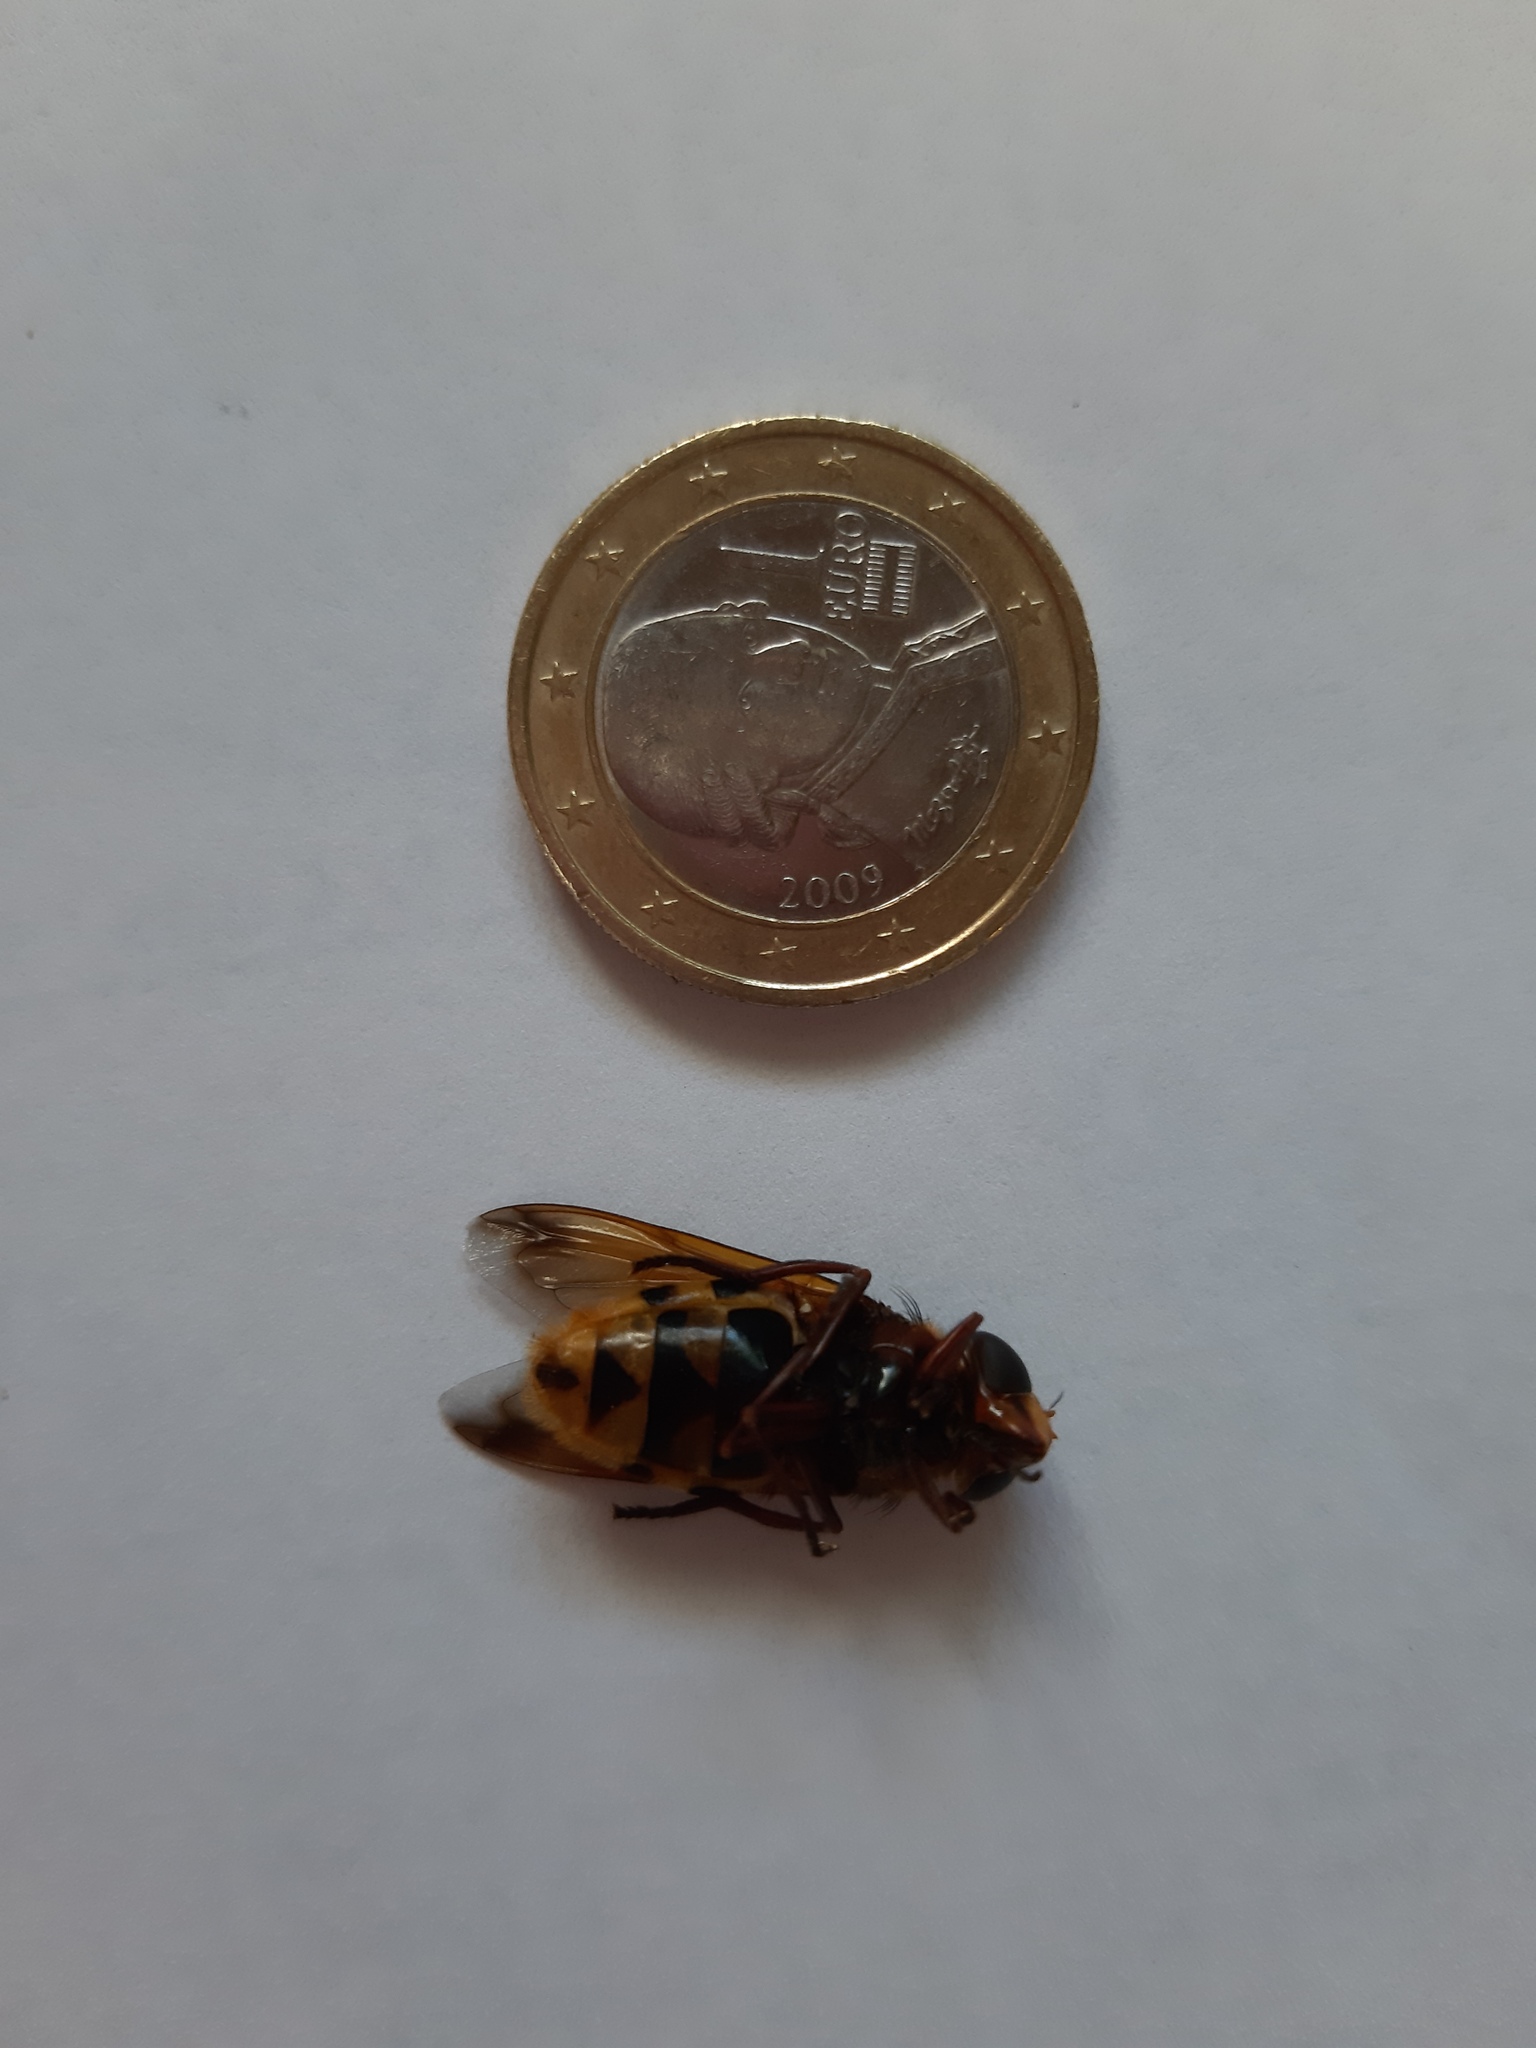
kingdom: Animalia
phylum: Arthropoda
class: Insecta
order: Diptera
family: Syrphidae
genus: Volucella
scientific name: Volucella zonaria
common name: Hornet hoverfly
